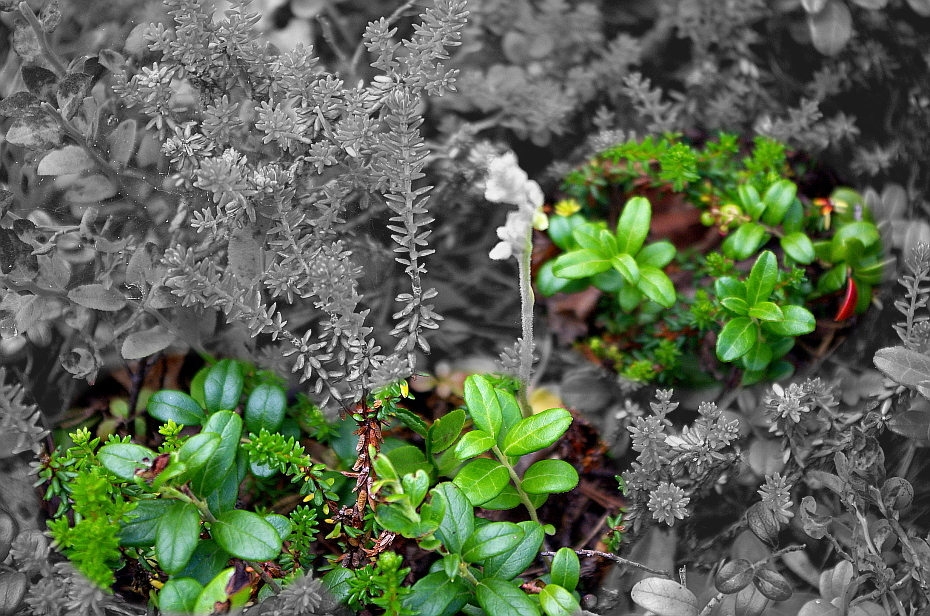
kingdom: Plantae
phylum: Tracheophyta
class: Magnoliopsida
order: Ericales
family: Ericaceae
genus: Vaccinium
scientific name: Vaccinium vitis-idaea
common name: Cowberry
